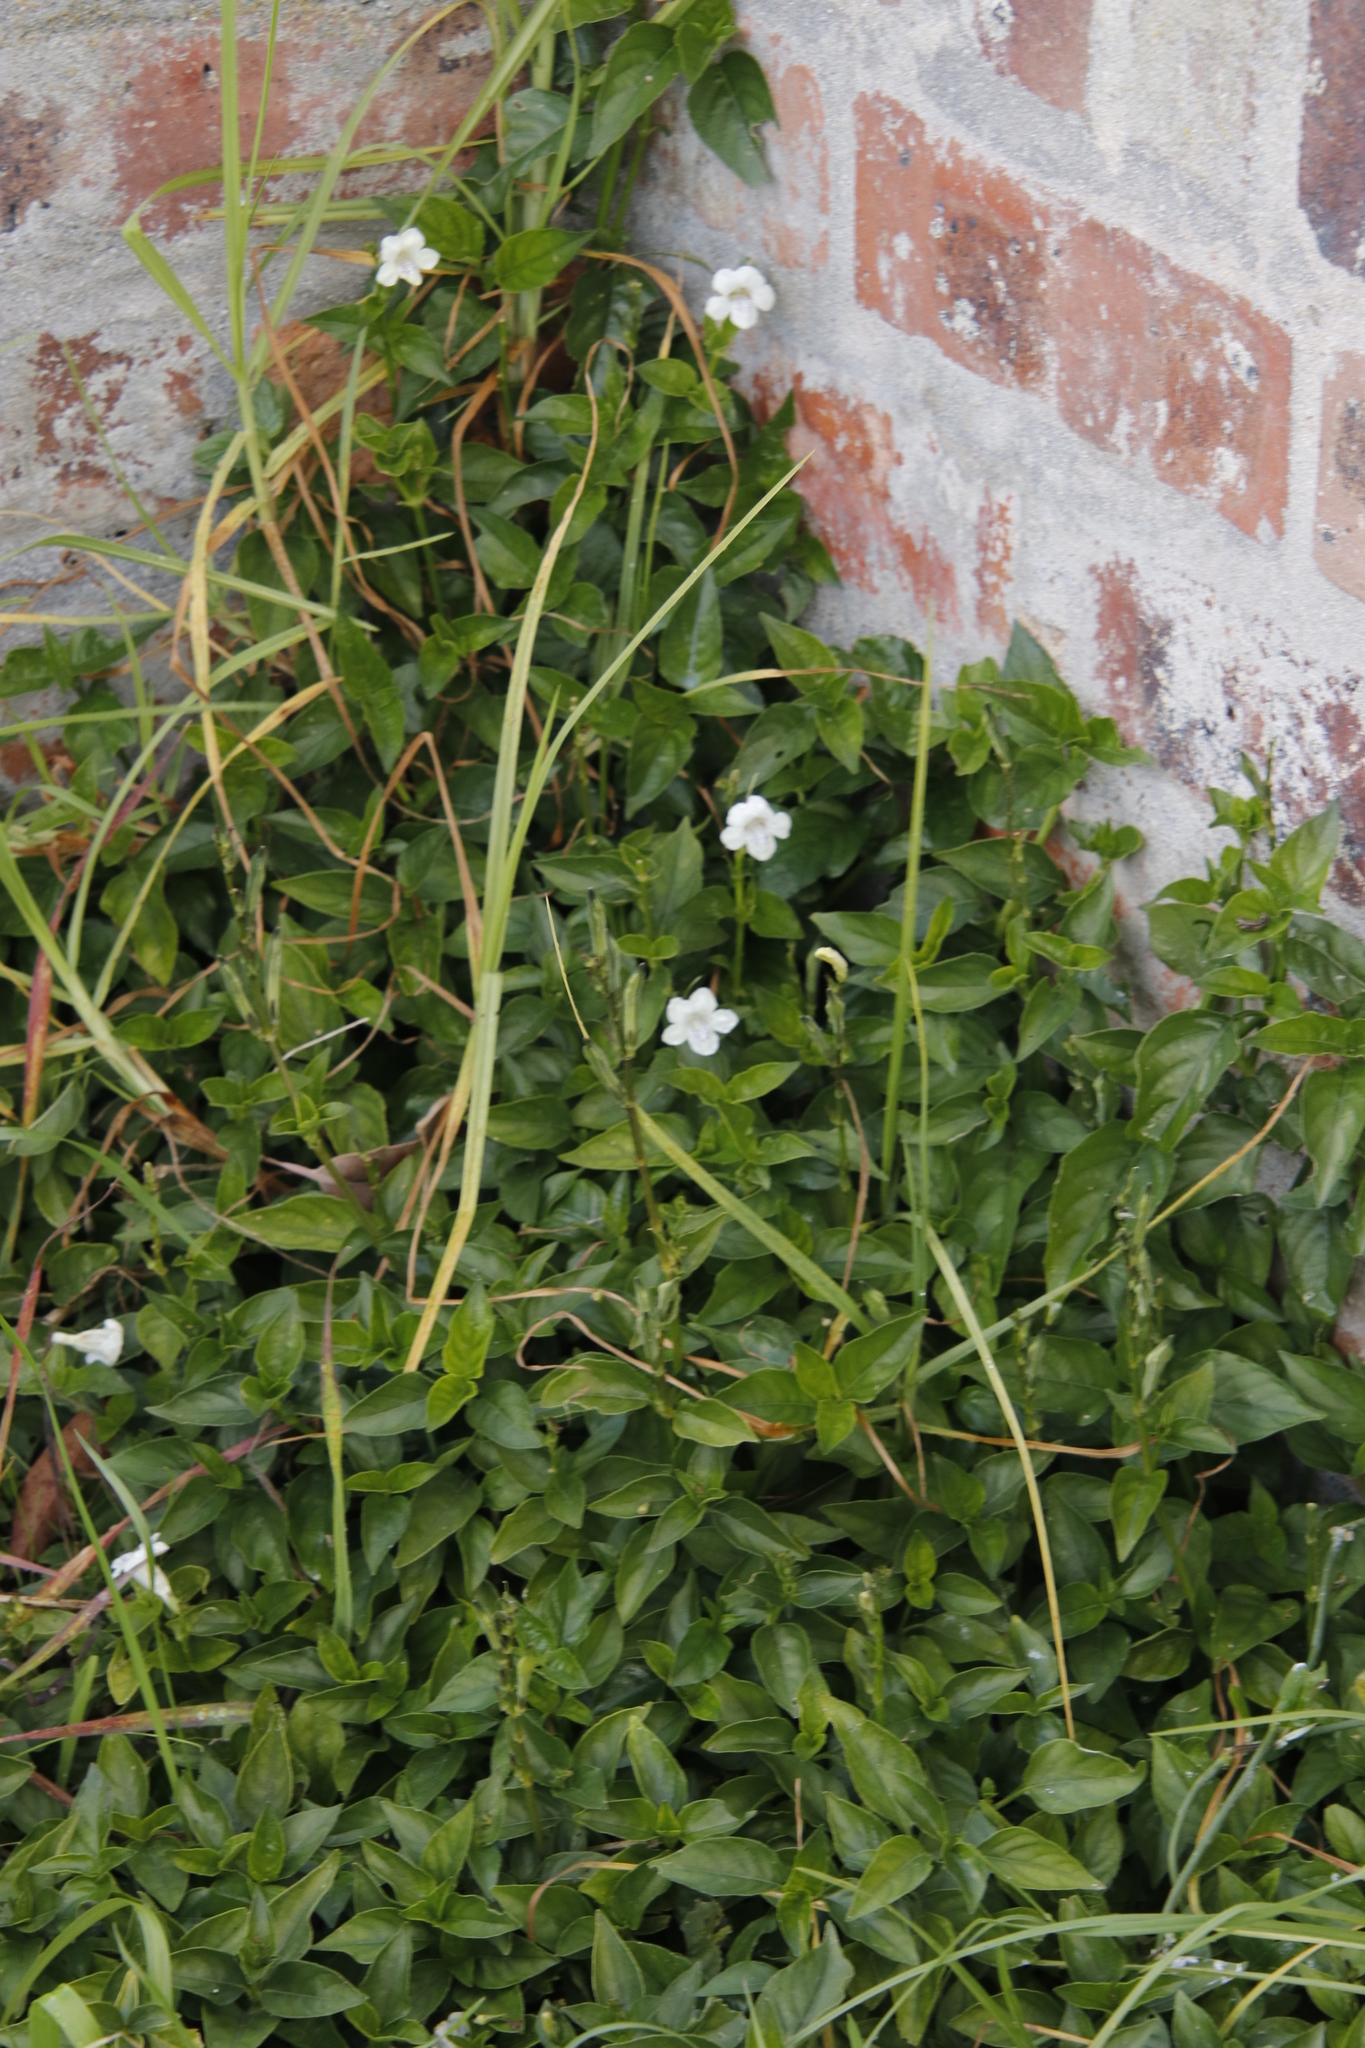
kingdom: Plantae
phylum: Tracheophyta
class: Magnoliopsida
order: Lamiales
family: Acanthaceae
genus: Asystasia
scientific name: Asystasia intrusa
